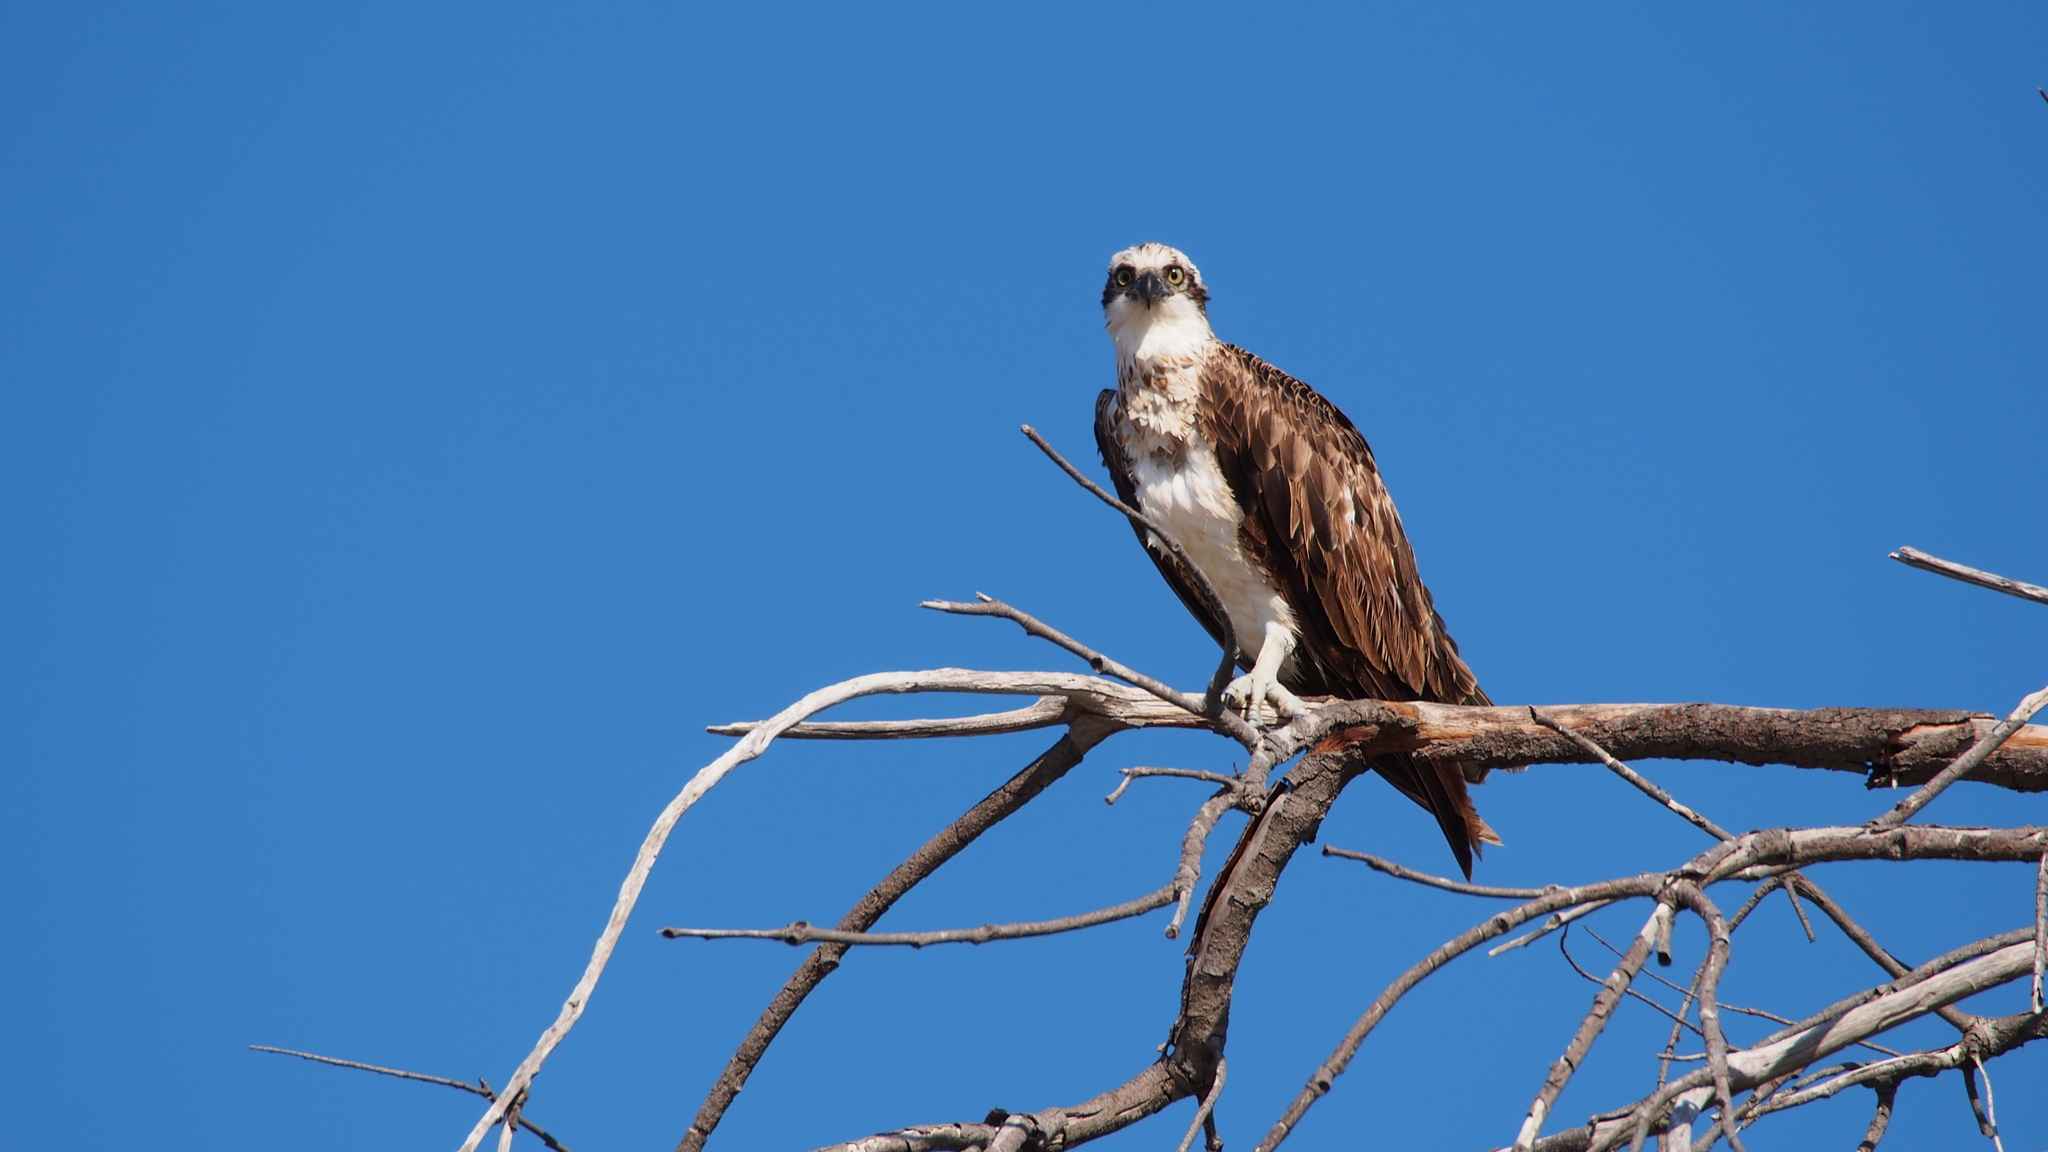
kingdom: Animalia
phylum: Chordata
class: Aves
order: Accipitriformes
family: Pandionidae
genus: Pandion
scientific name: Pandion cristatus
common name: Eastern osprey
